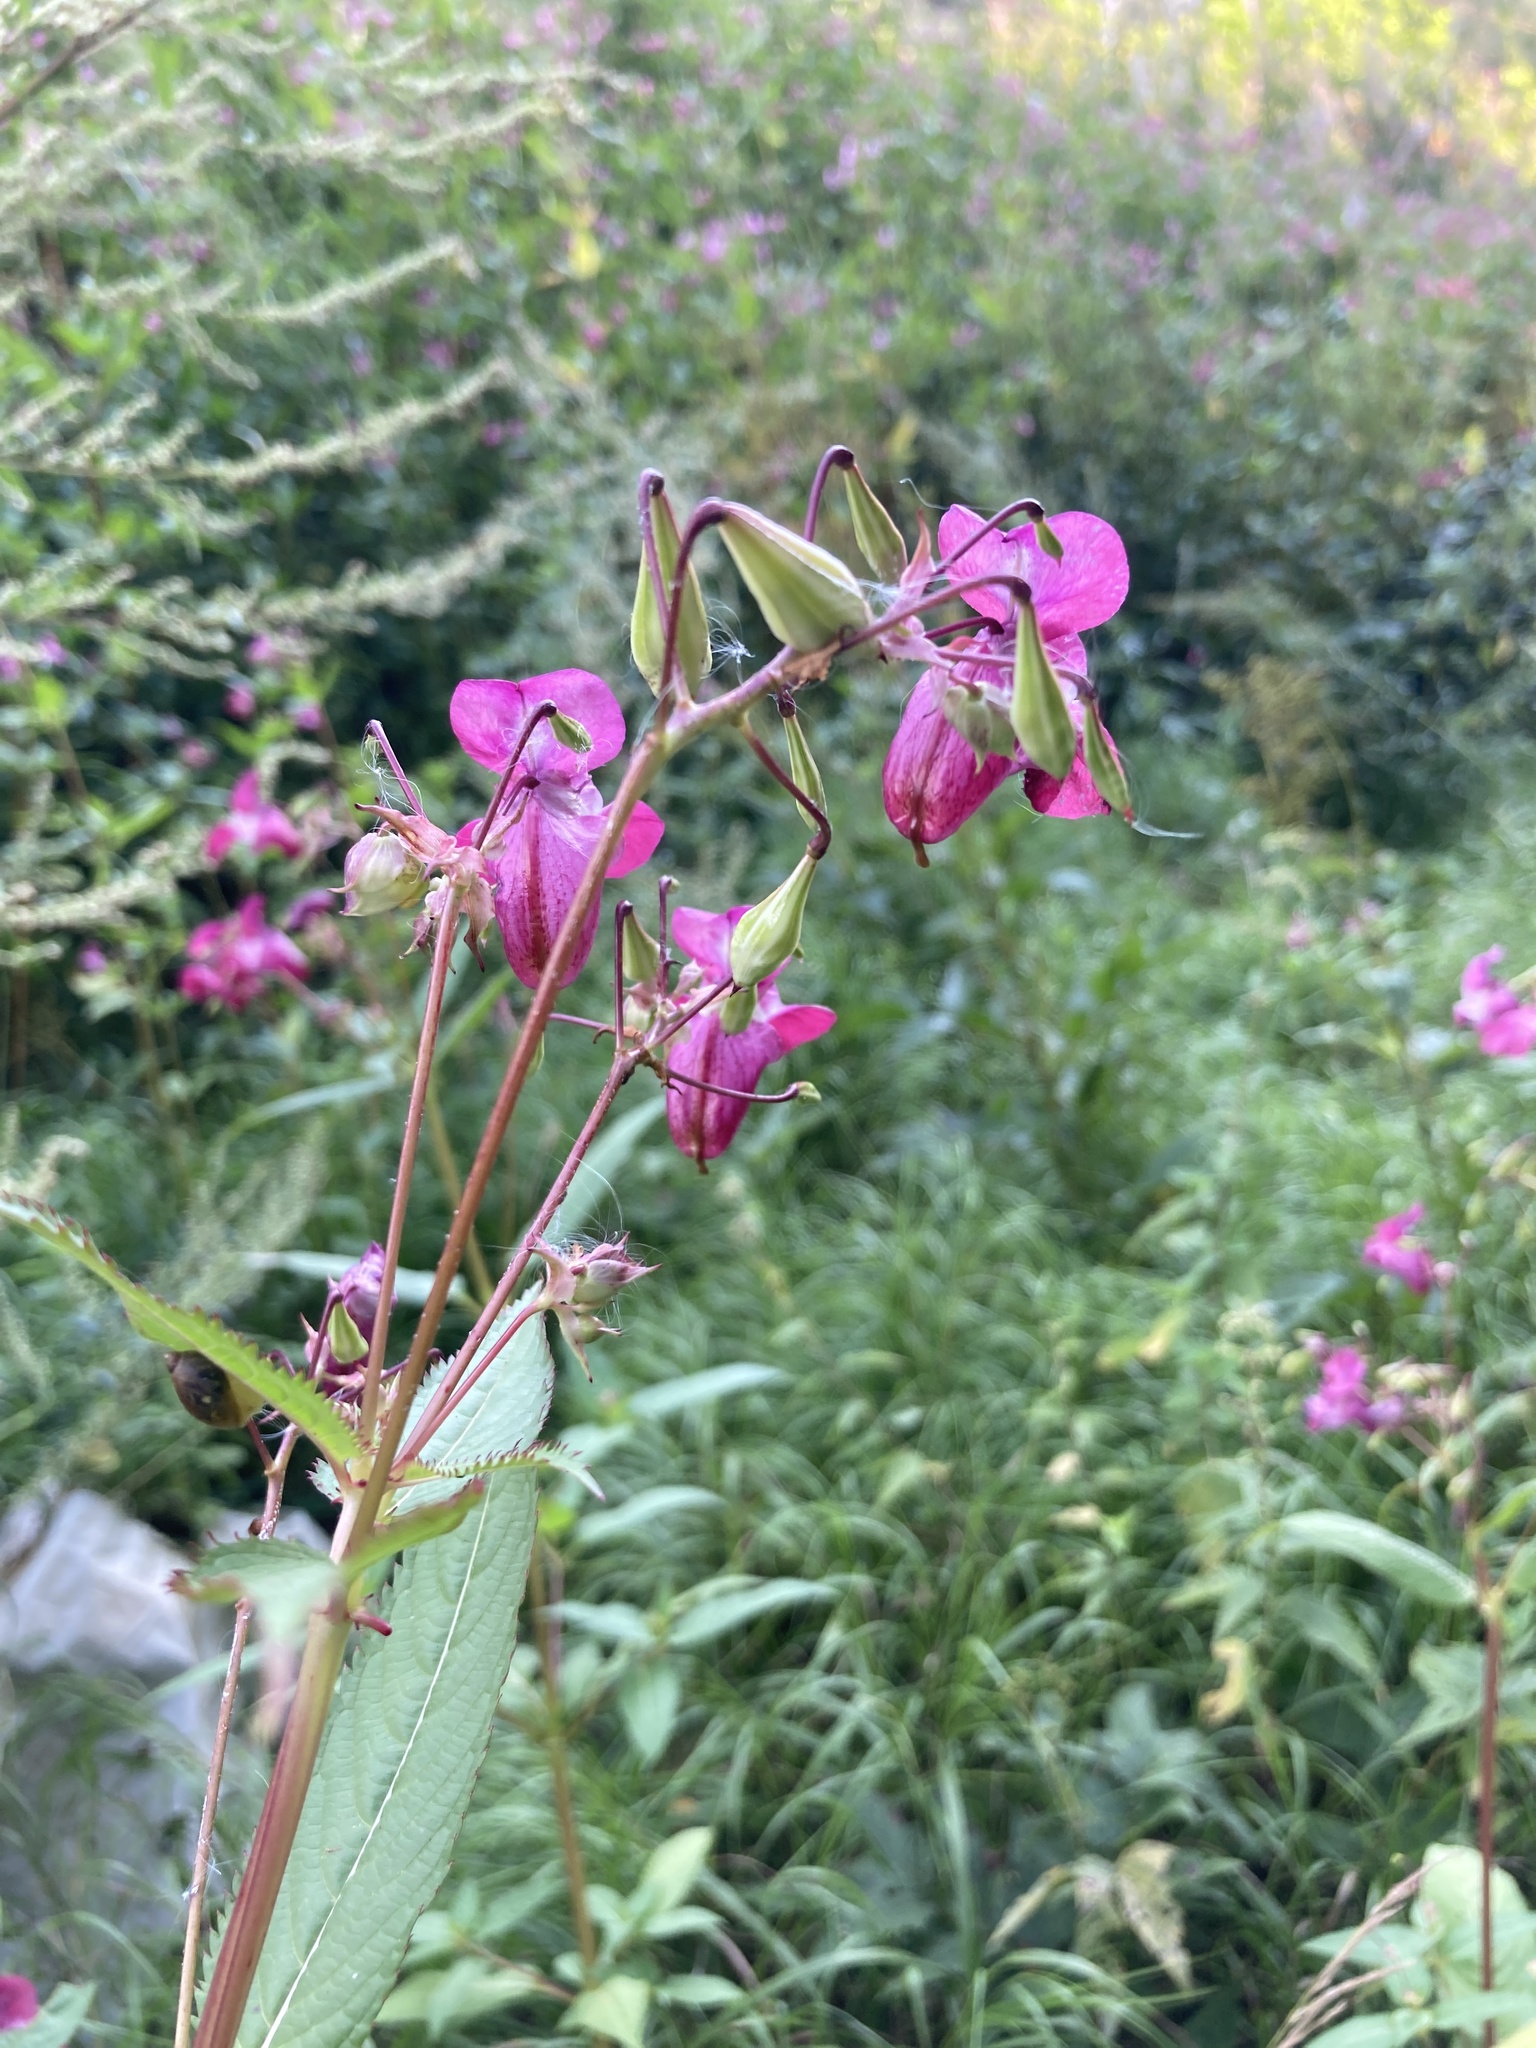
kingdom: Plantae
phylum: Tracheophyta
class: Magnoliopsida
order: Ericales
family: Balsaminaceae
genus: Impatiens
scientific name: Impatiens glandulifera
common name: Himalayan balsam
